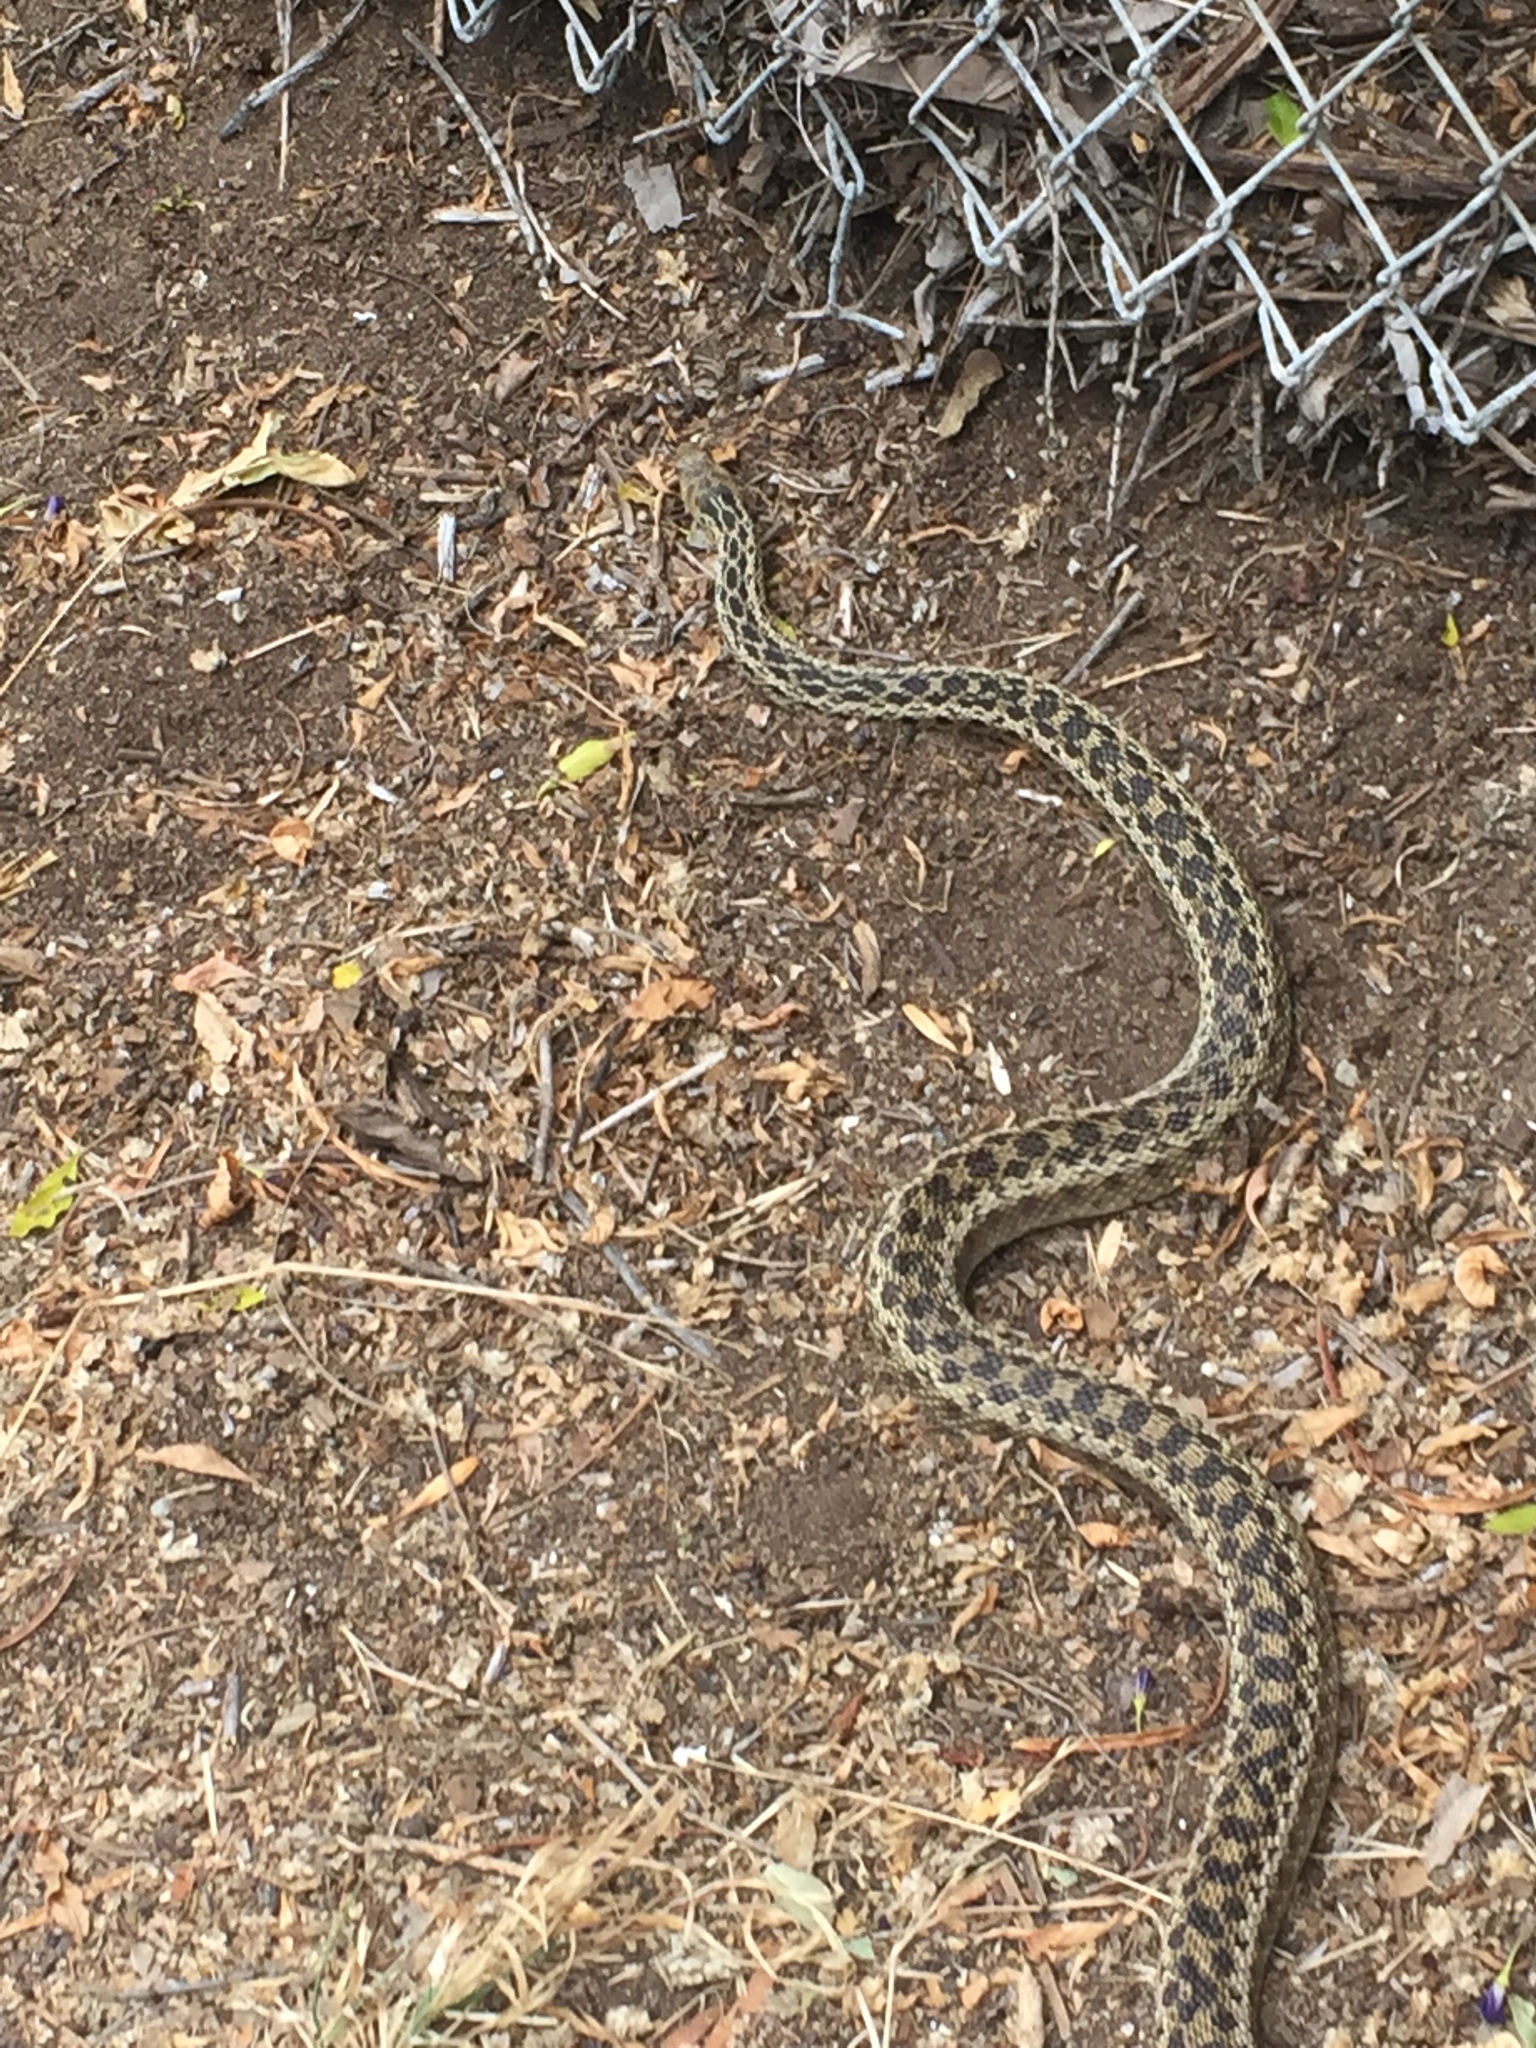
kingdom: Animalia
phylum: Chordata
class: Squamata
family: Colubridae
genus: Pituophis
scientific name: Pituophis catenifer
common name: Gopher snake
